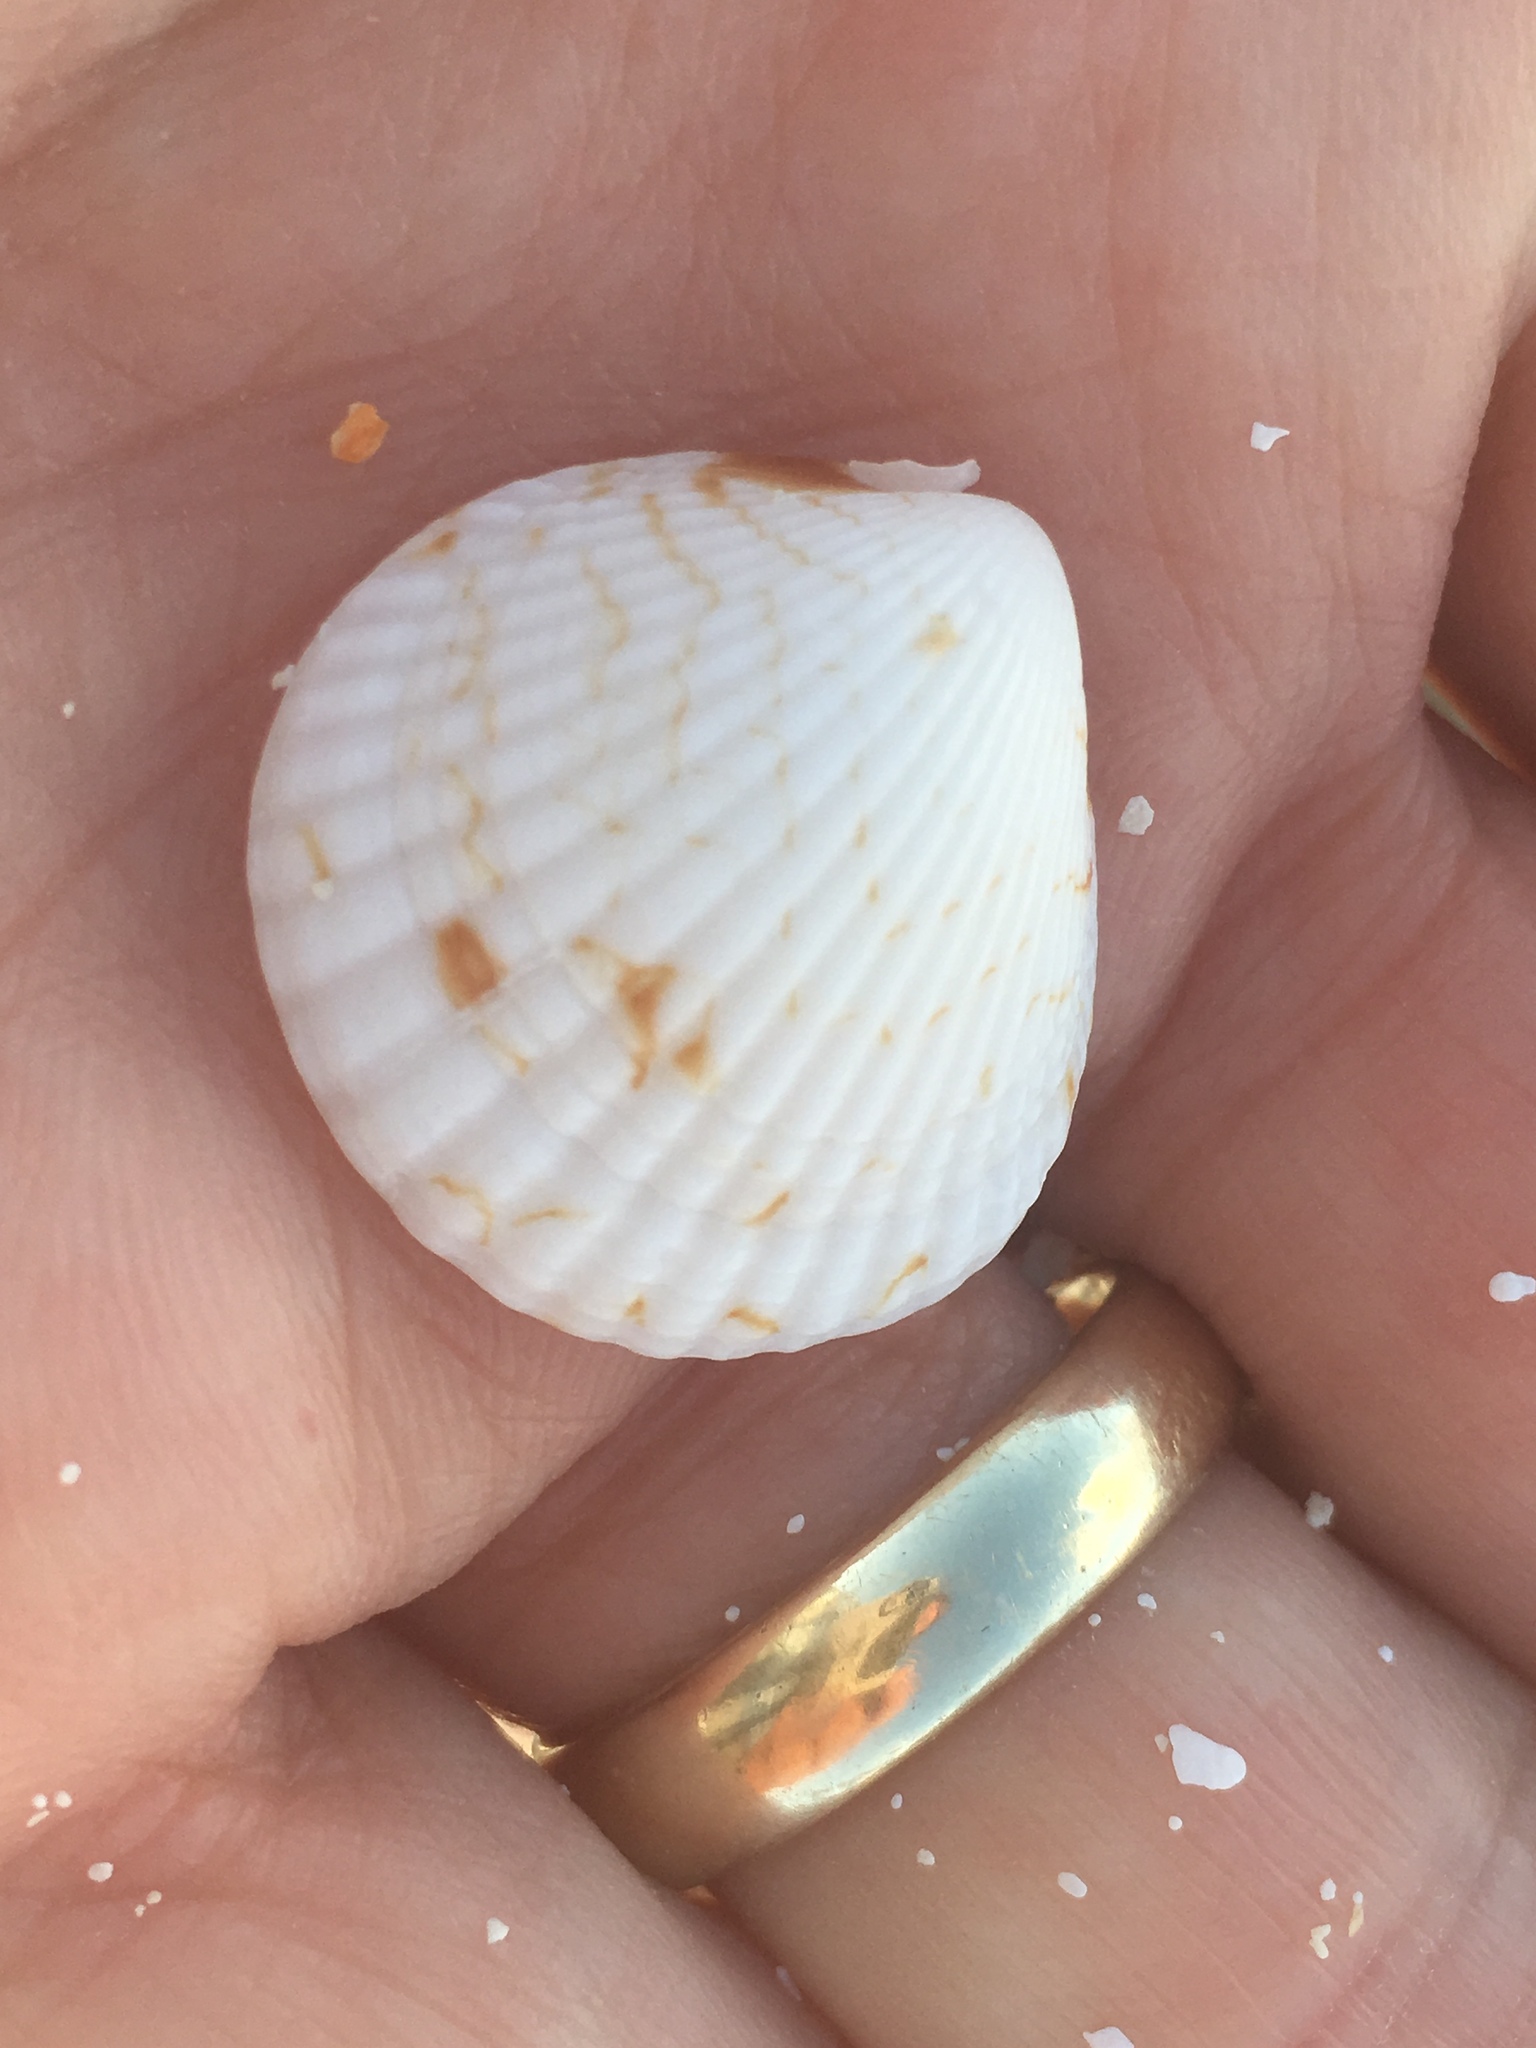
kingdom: Animalia
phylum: Mollusca
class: Bivalvia
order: Arcida
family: Glycymerididae
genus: Tucetona
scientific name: Tucetona pectinata
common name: Comb bittersweet
